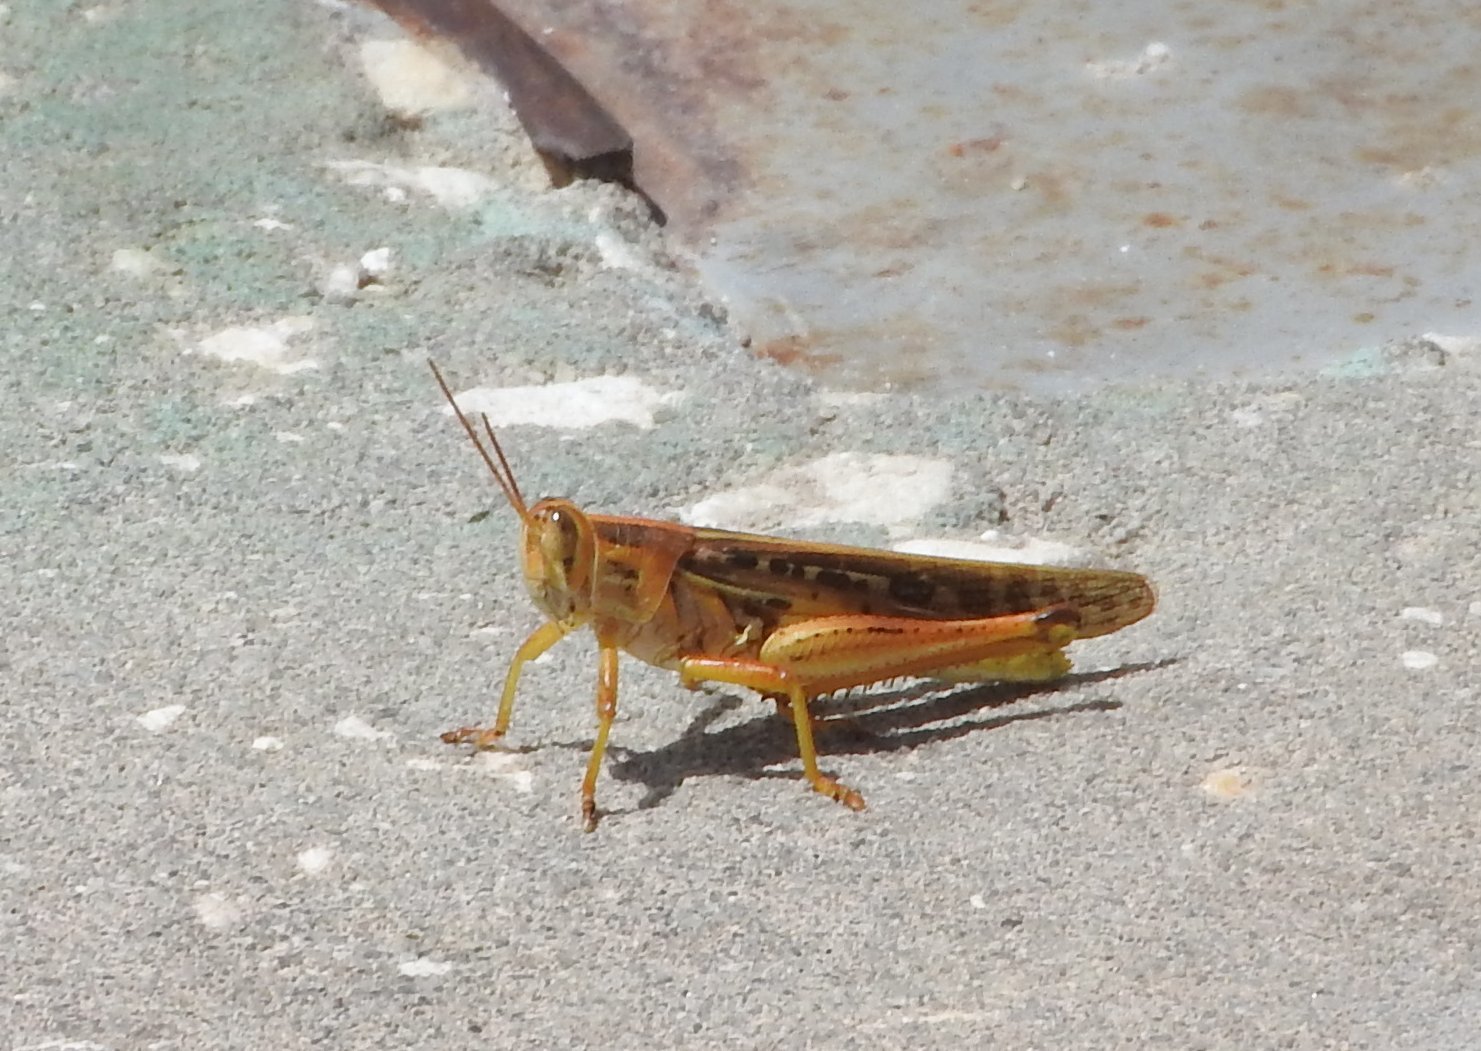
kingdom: Animalia
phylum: Arthropoda
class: Insecta
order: Orthoptera
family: Acrididae
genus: Schistocerca
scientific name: Schistocerca americana
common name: American bird locust
